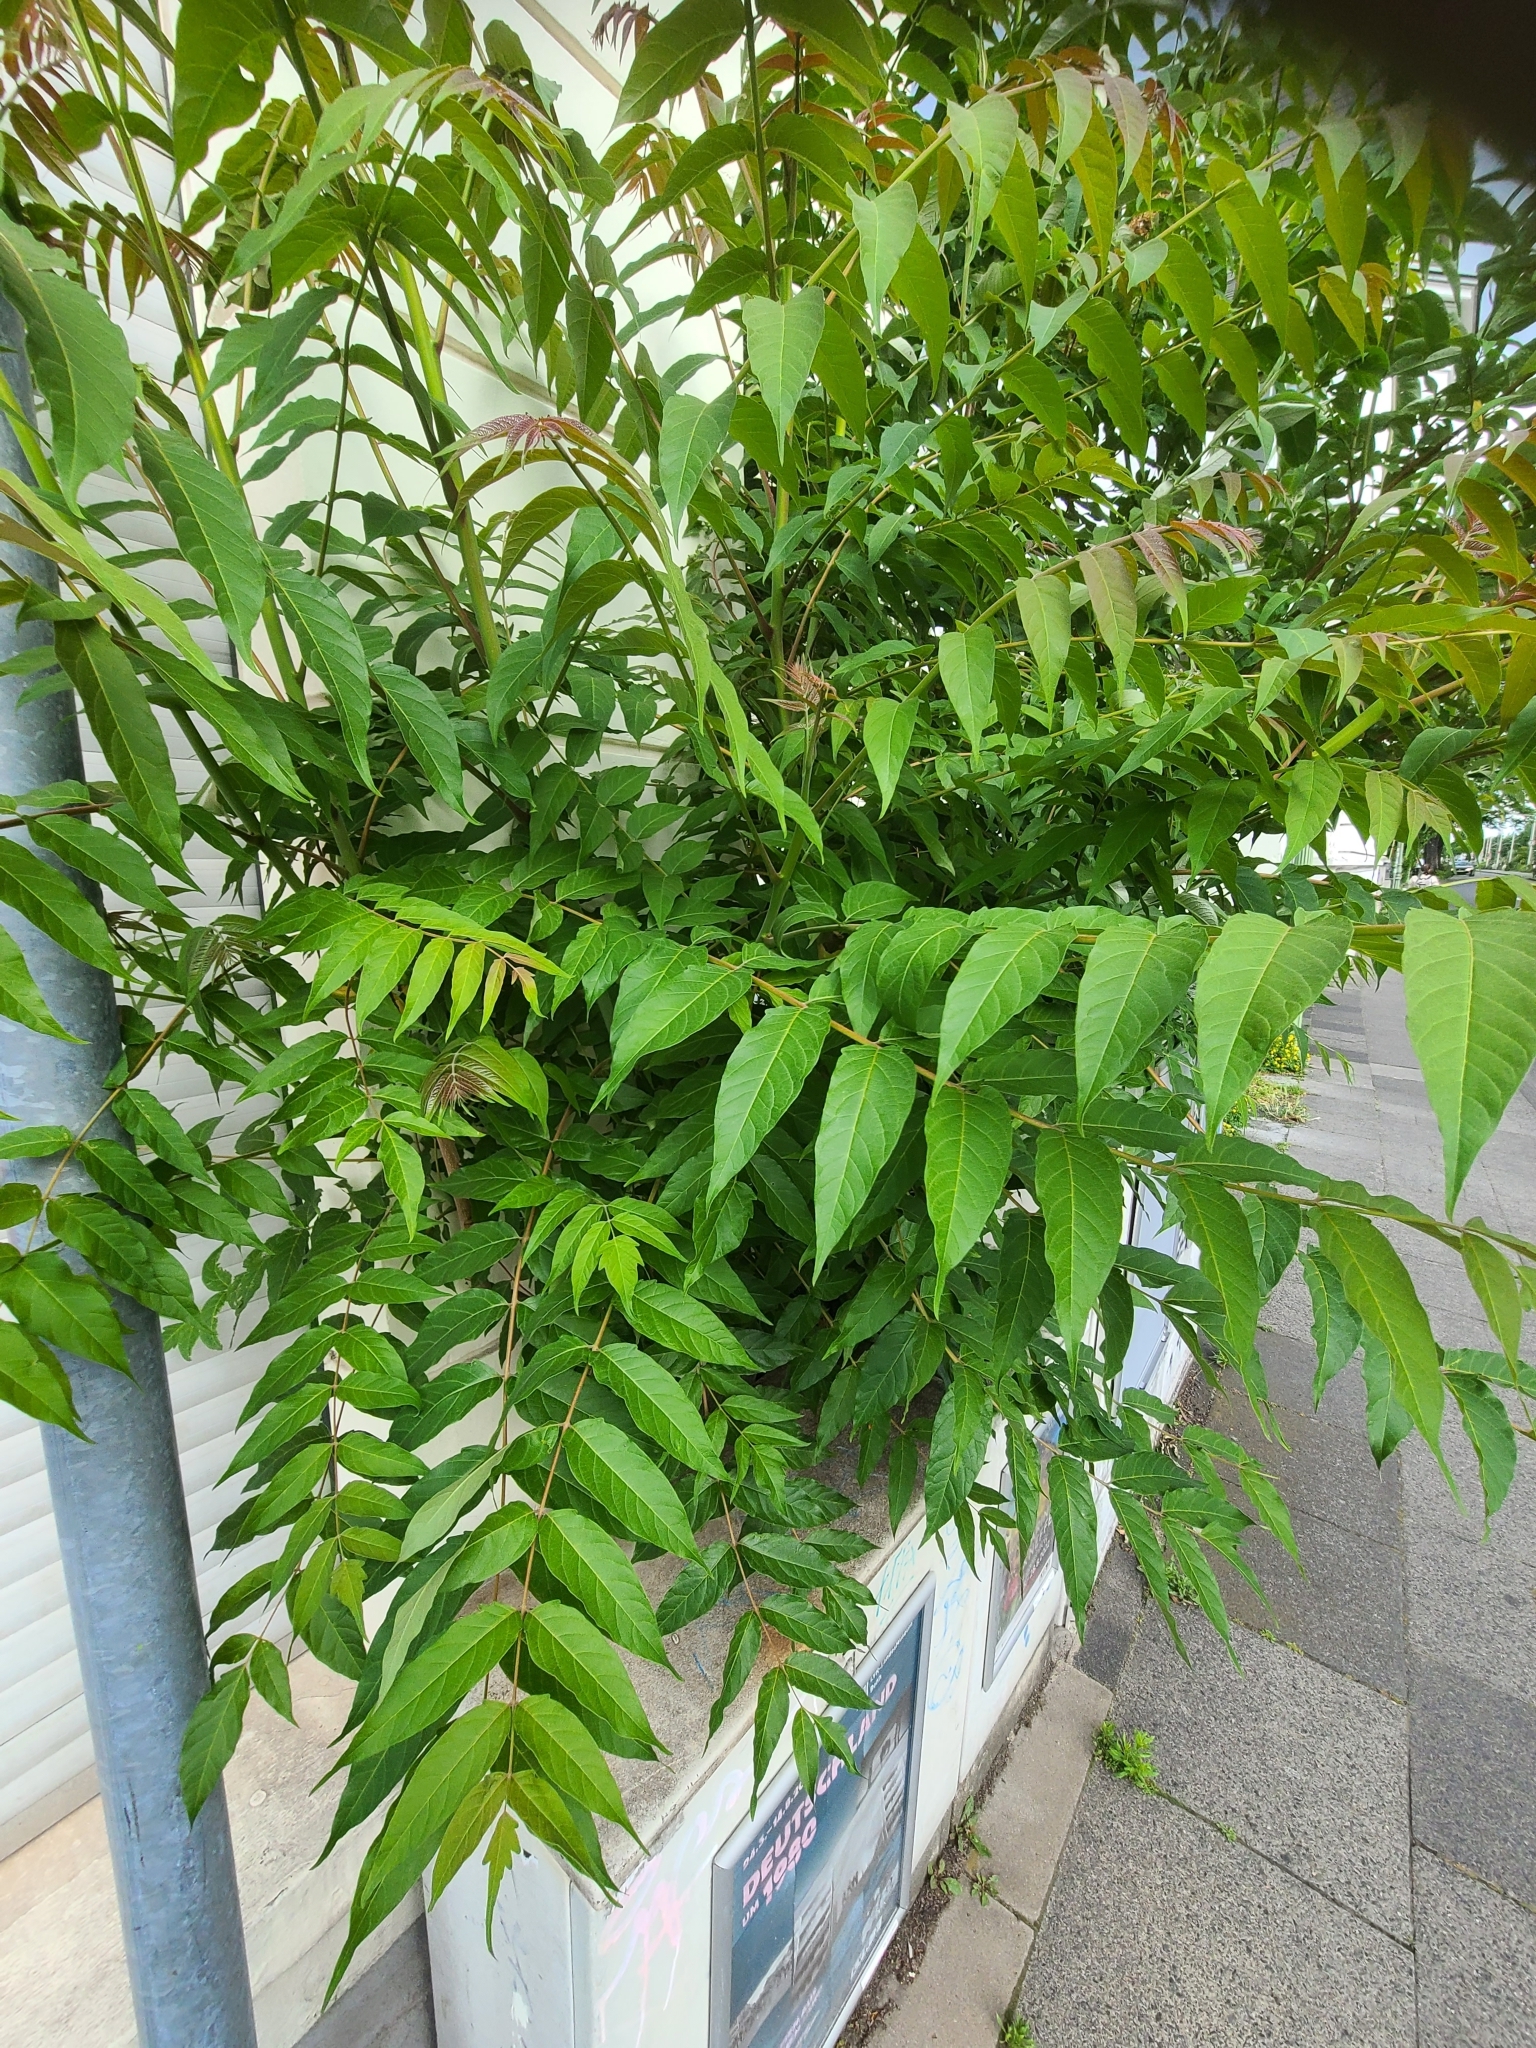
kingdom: Plantae
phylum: Tracheophyta
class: Magnoliopsida
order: Sapindales
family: Simaroubaceae
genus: Ailanthus
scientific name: Ailanthus altissima
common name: Tree-of-heaven
